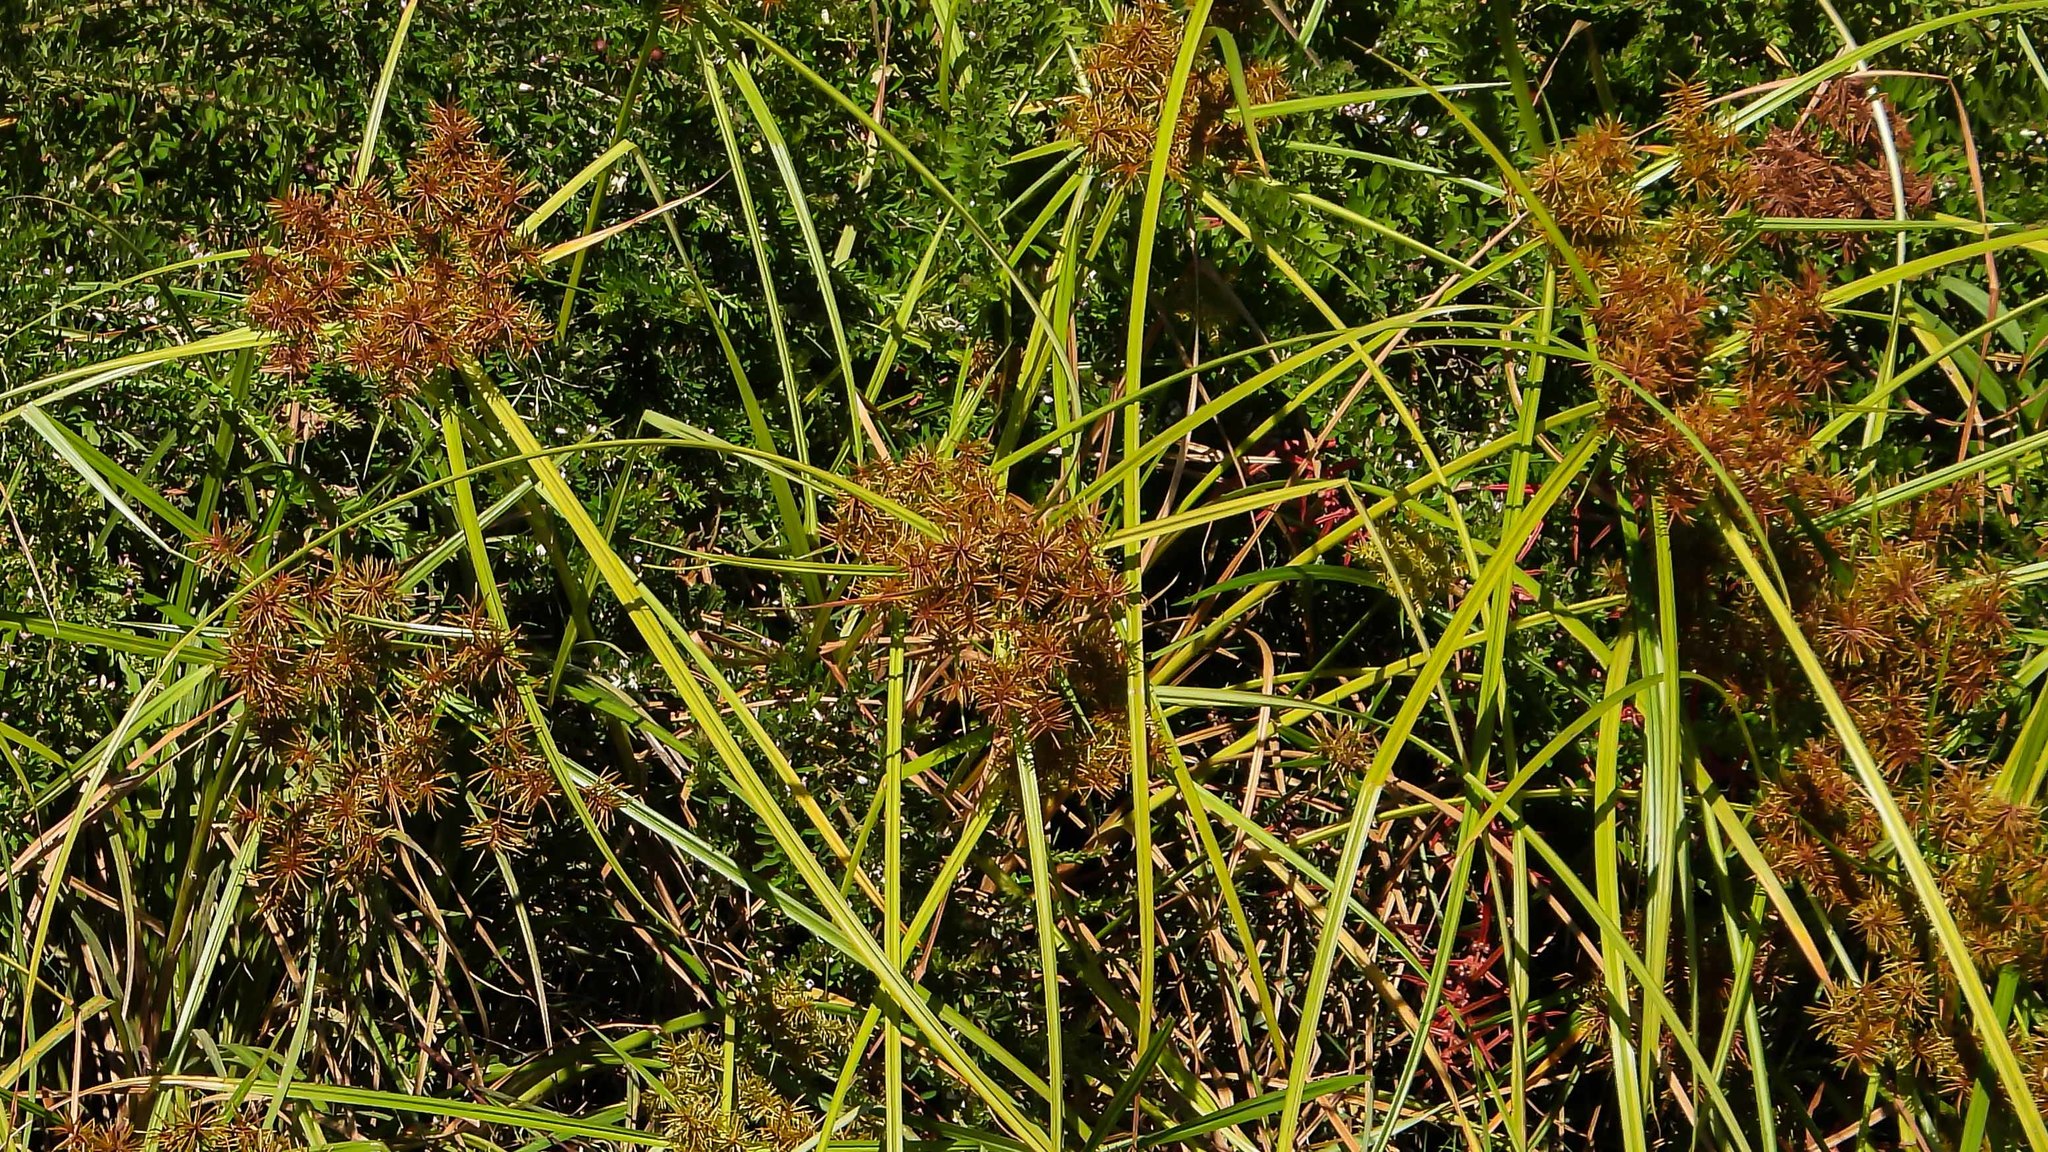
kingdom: Plantae
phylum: Tracheophyta
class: Liliopsida
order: Poales
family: Cyperaceae
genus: Cyperus
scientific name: Cyperus odoratus
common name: Fragrant flatsedge
